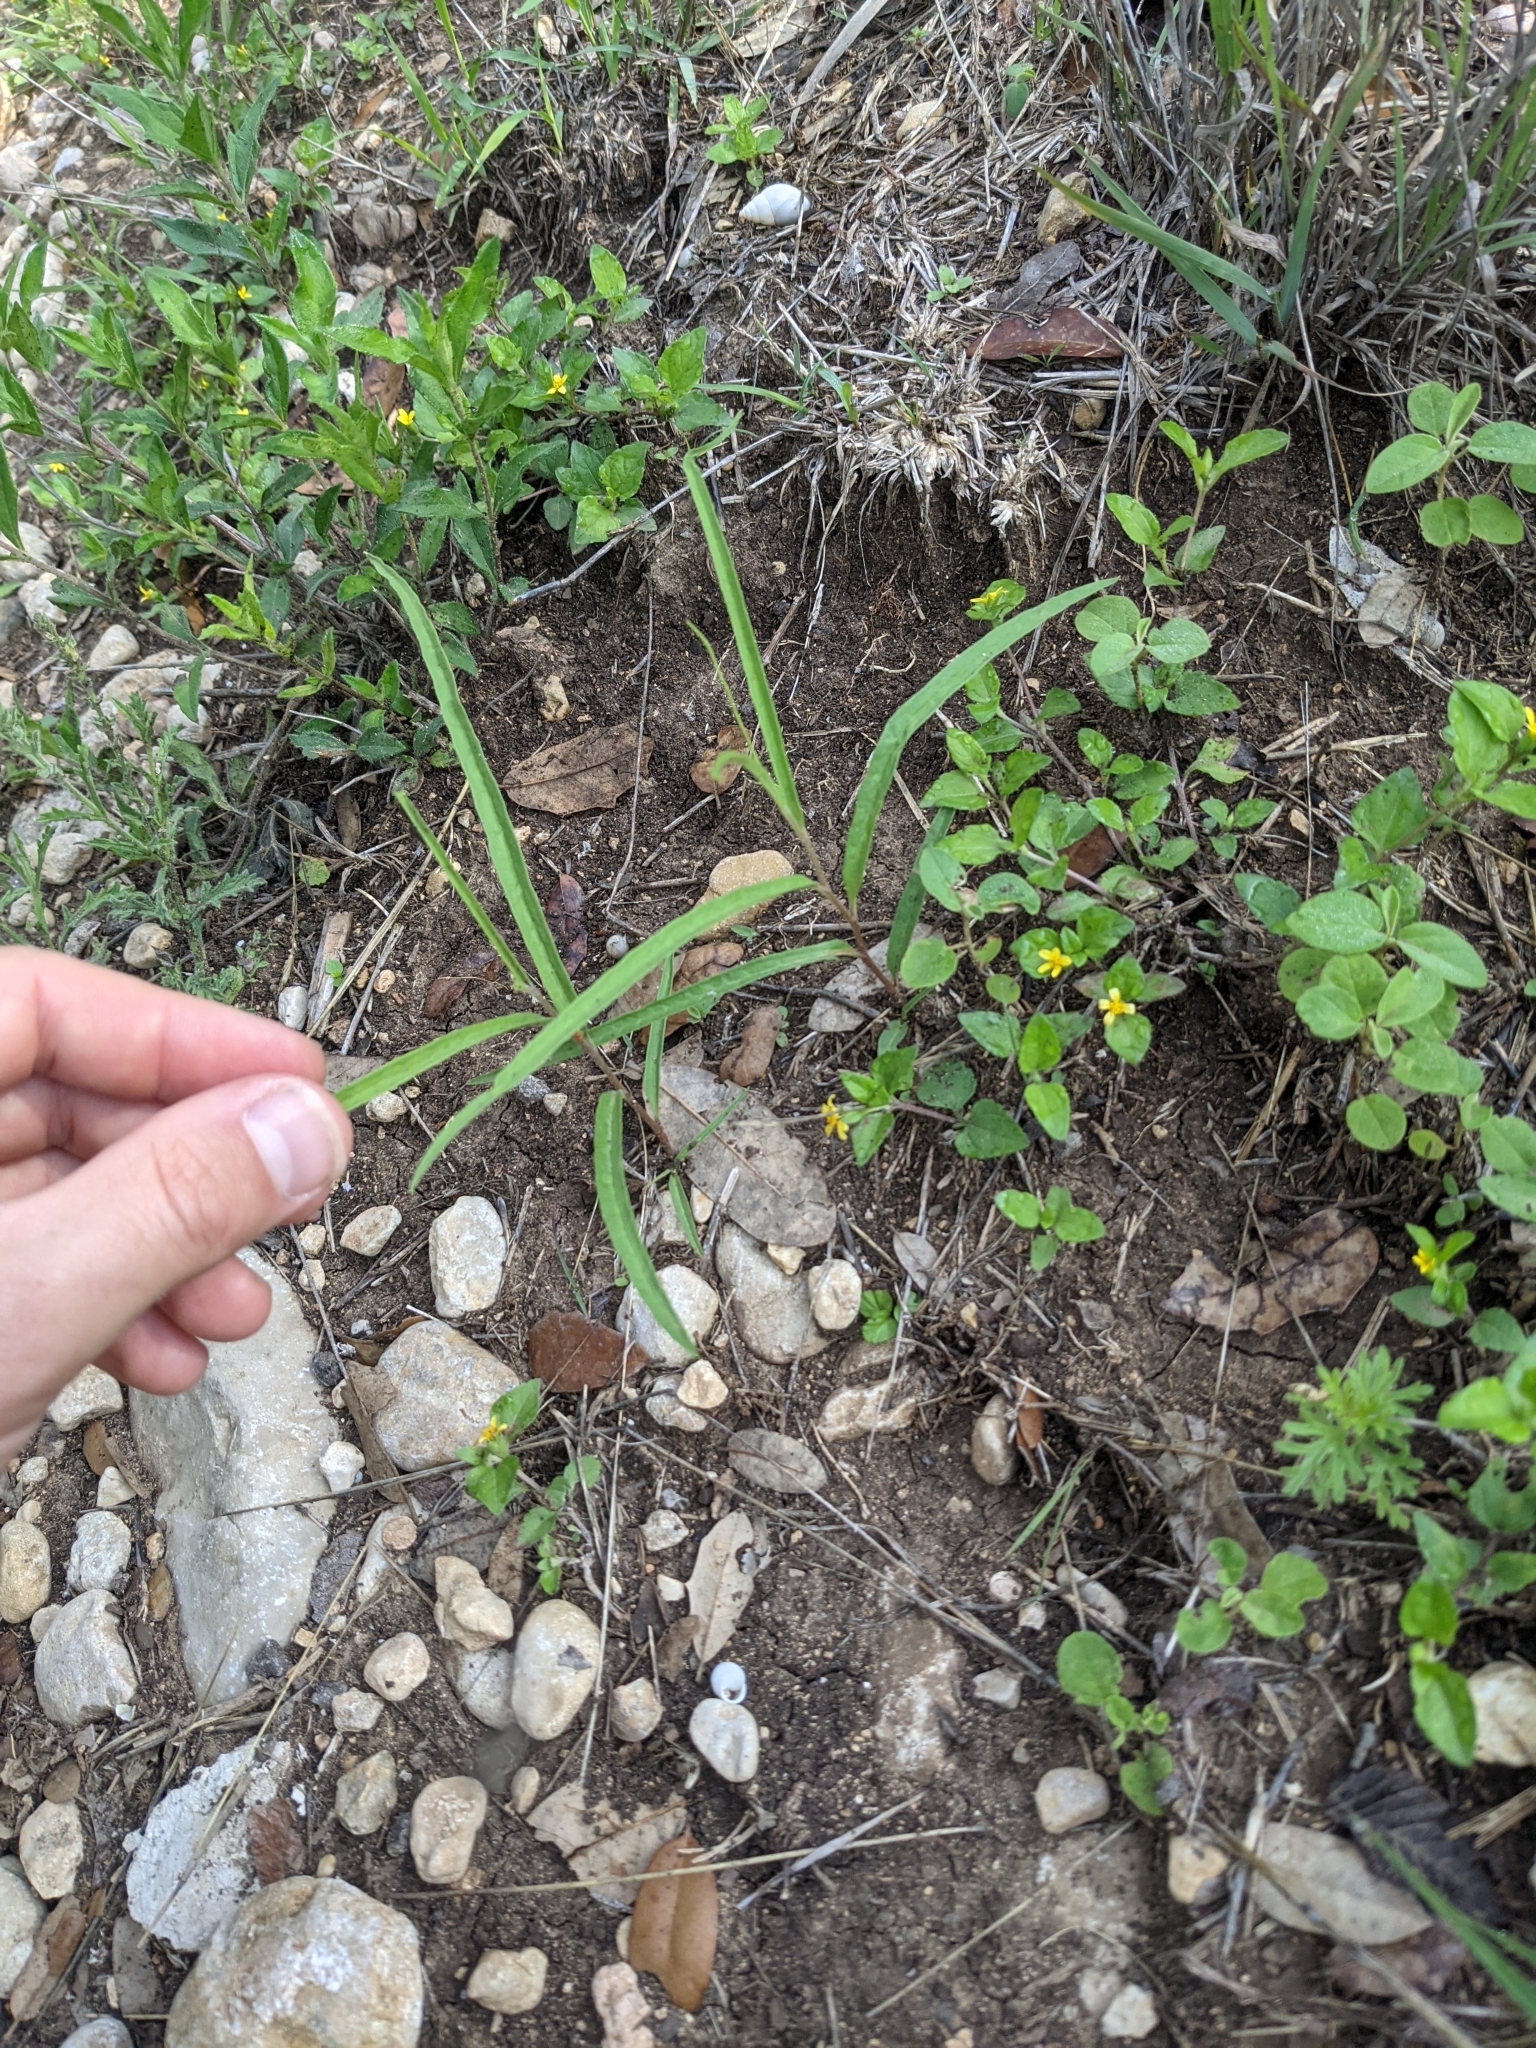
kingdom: Plantae
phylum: Tracheophyta
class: Magnoliopsida
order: Piperales
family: Aristolochiaceae
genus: Aristolochia
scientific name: Aristolochia erecta
